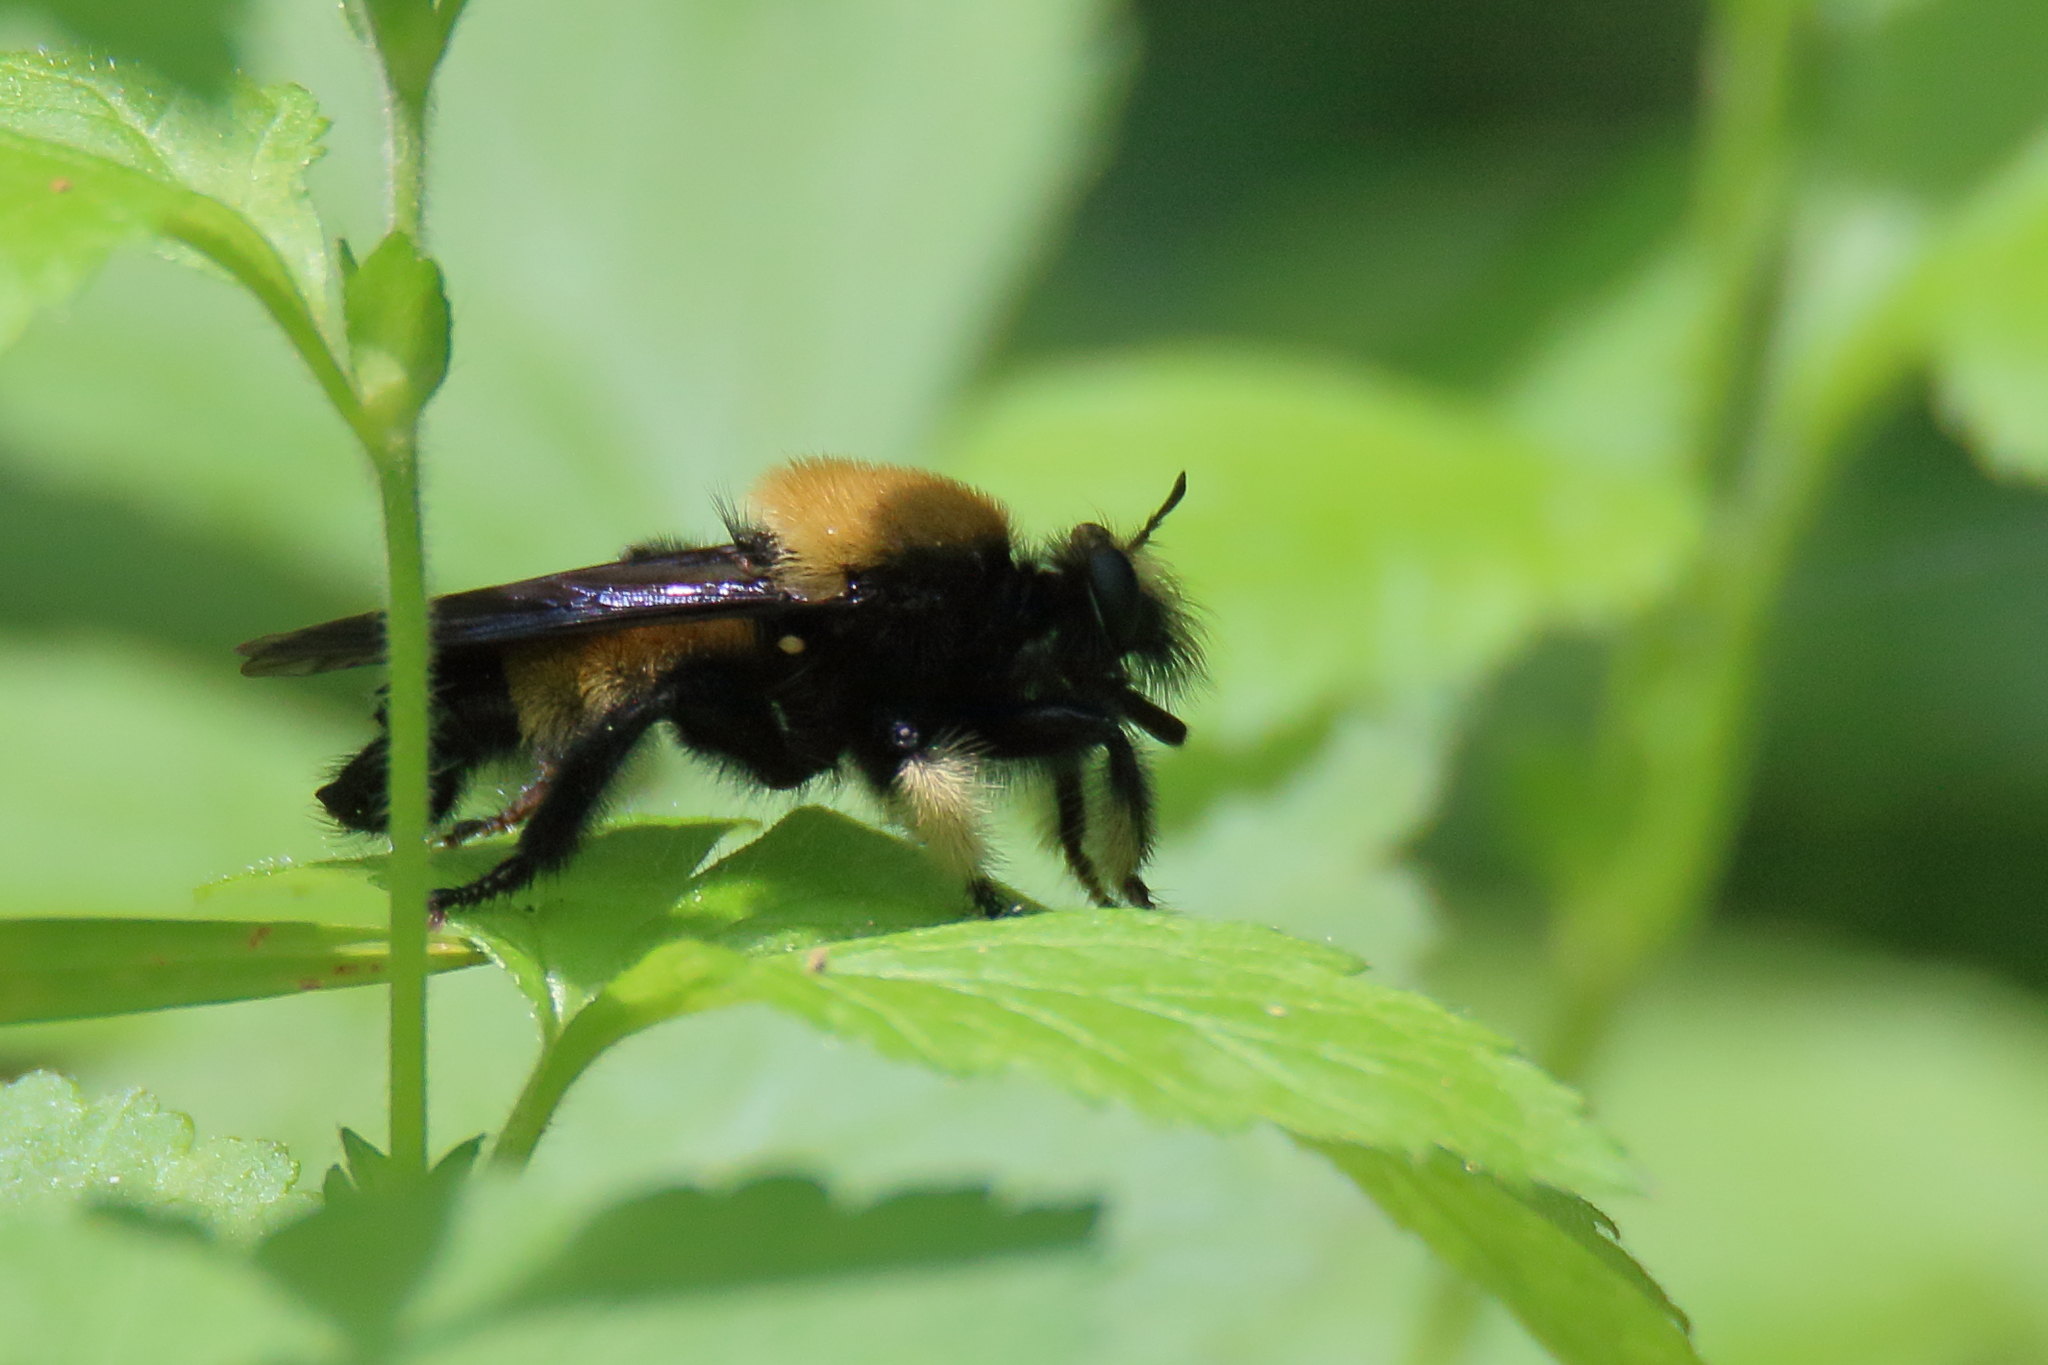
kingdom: Animalia
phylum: Arthropoda
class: Insecta
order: Diptera
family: Asilidae
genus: Laphria
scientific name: Laphria macquarti
